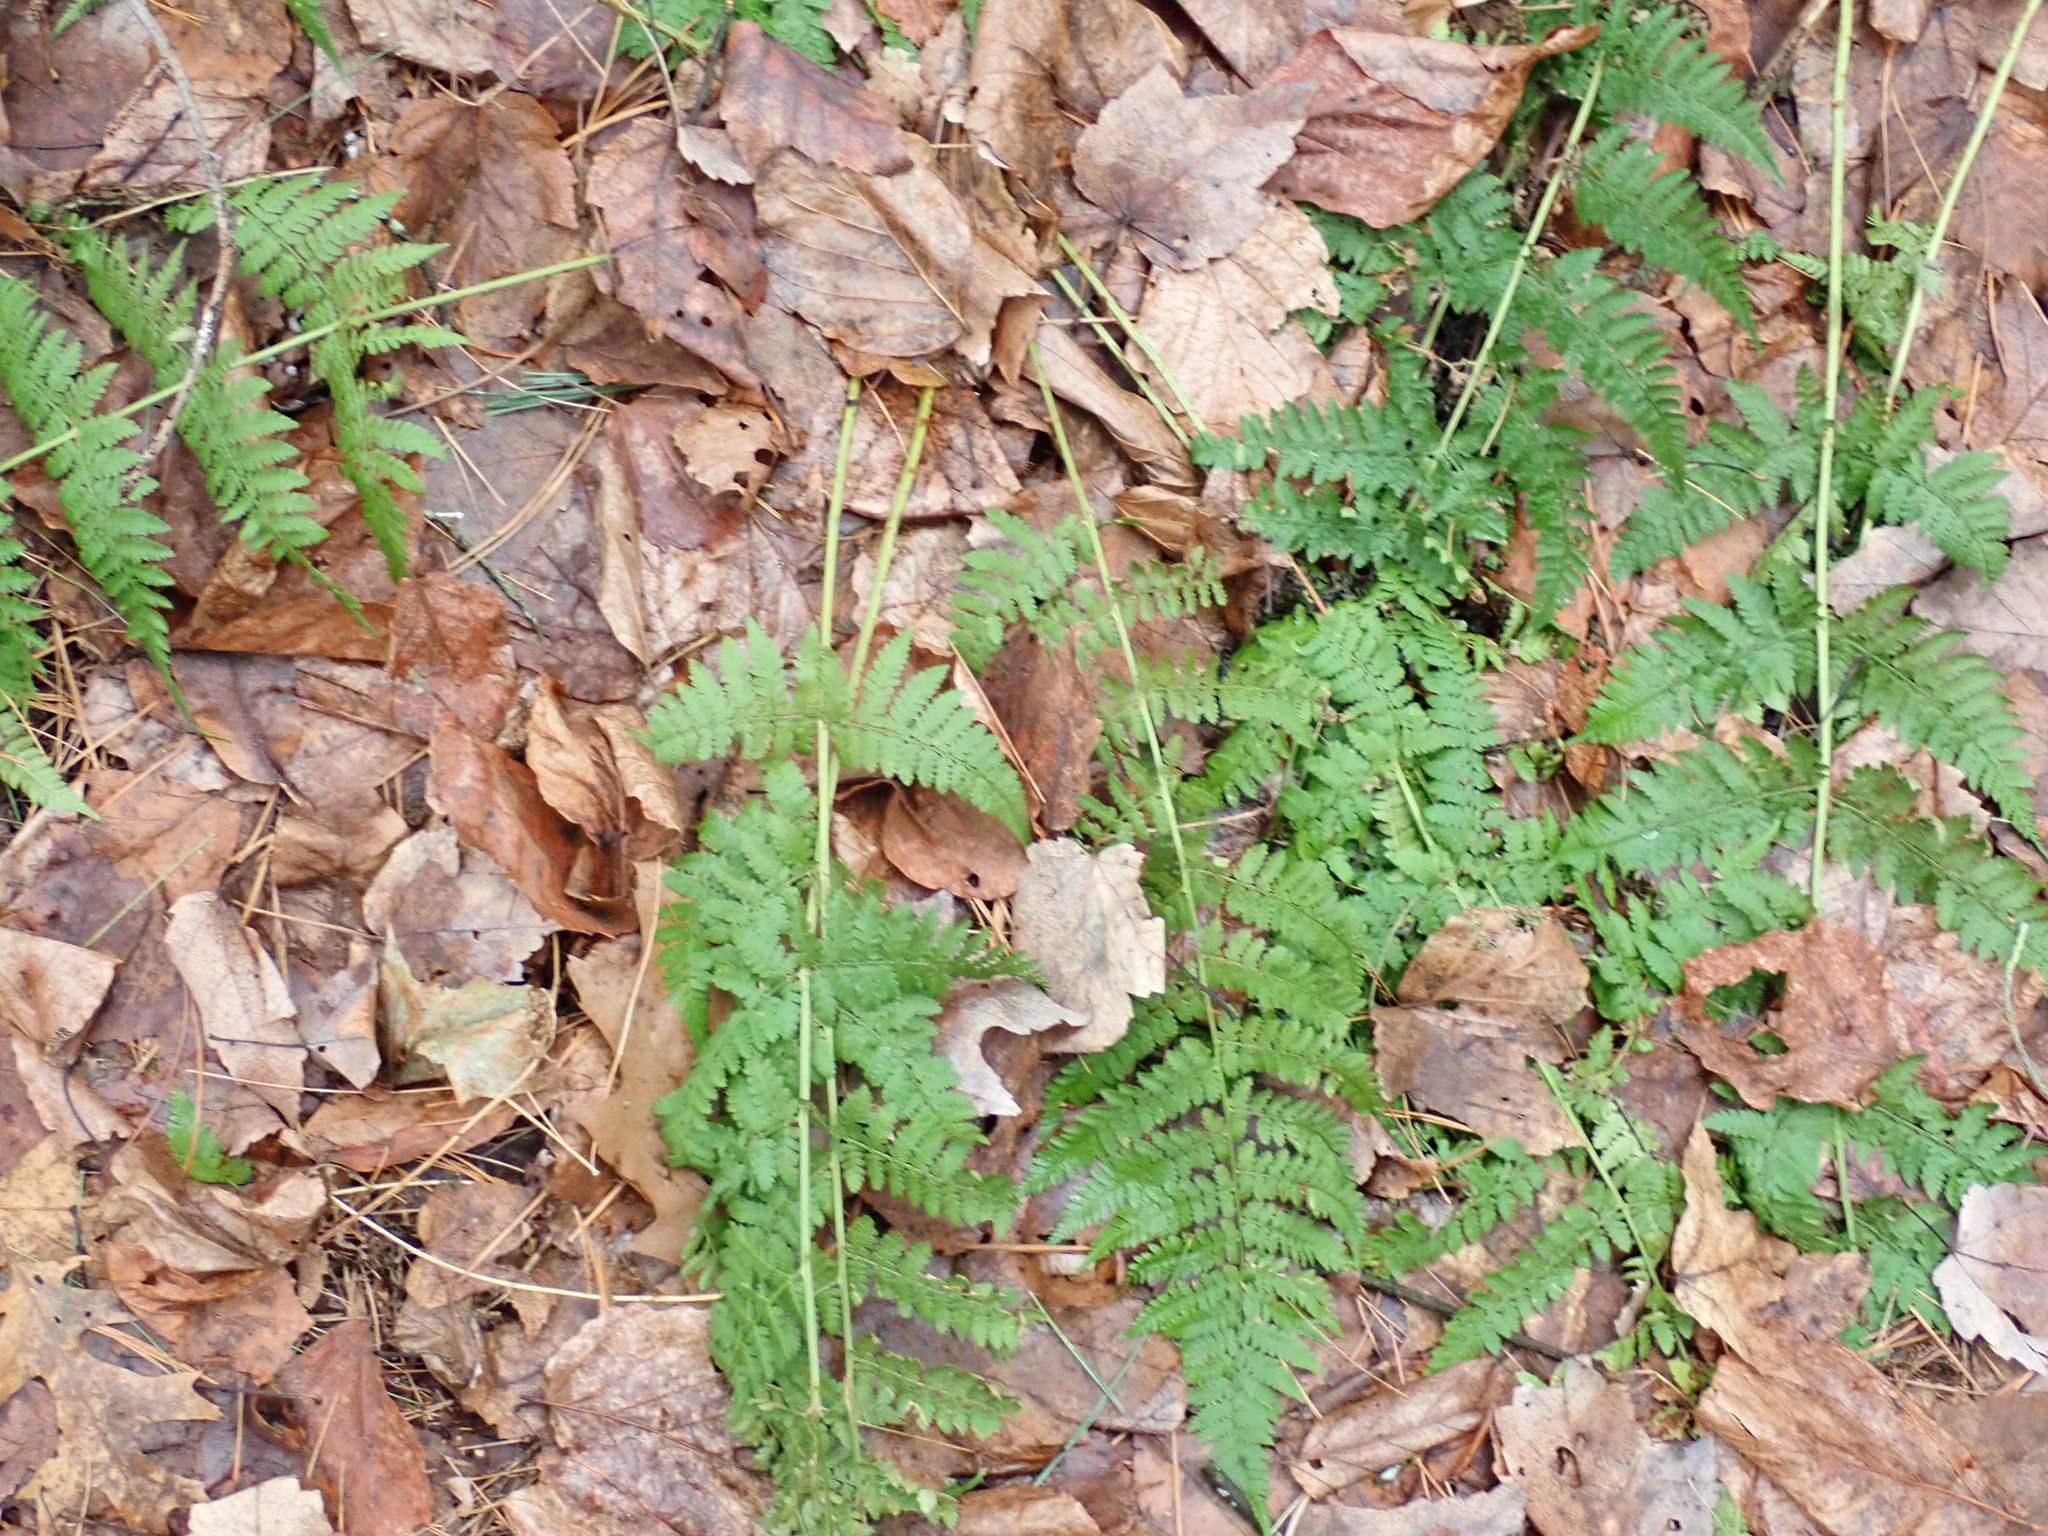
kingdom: Plantae
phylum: Tracheophyta
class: Polypodiopsida
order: Polypodiales
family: Dryopteridaceae
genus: Dryopteris
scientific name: Dryopteris intermedia
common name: Evergreen wood fern
